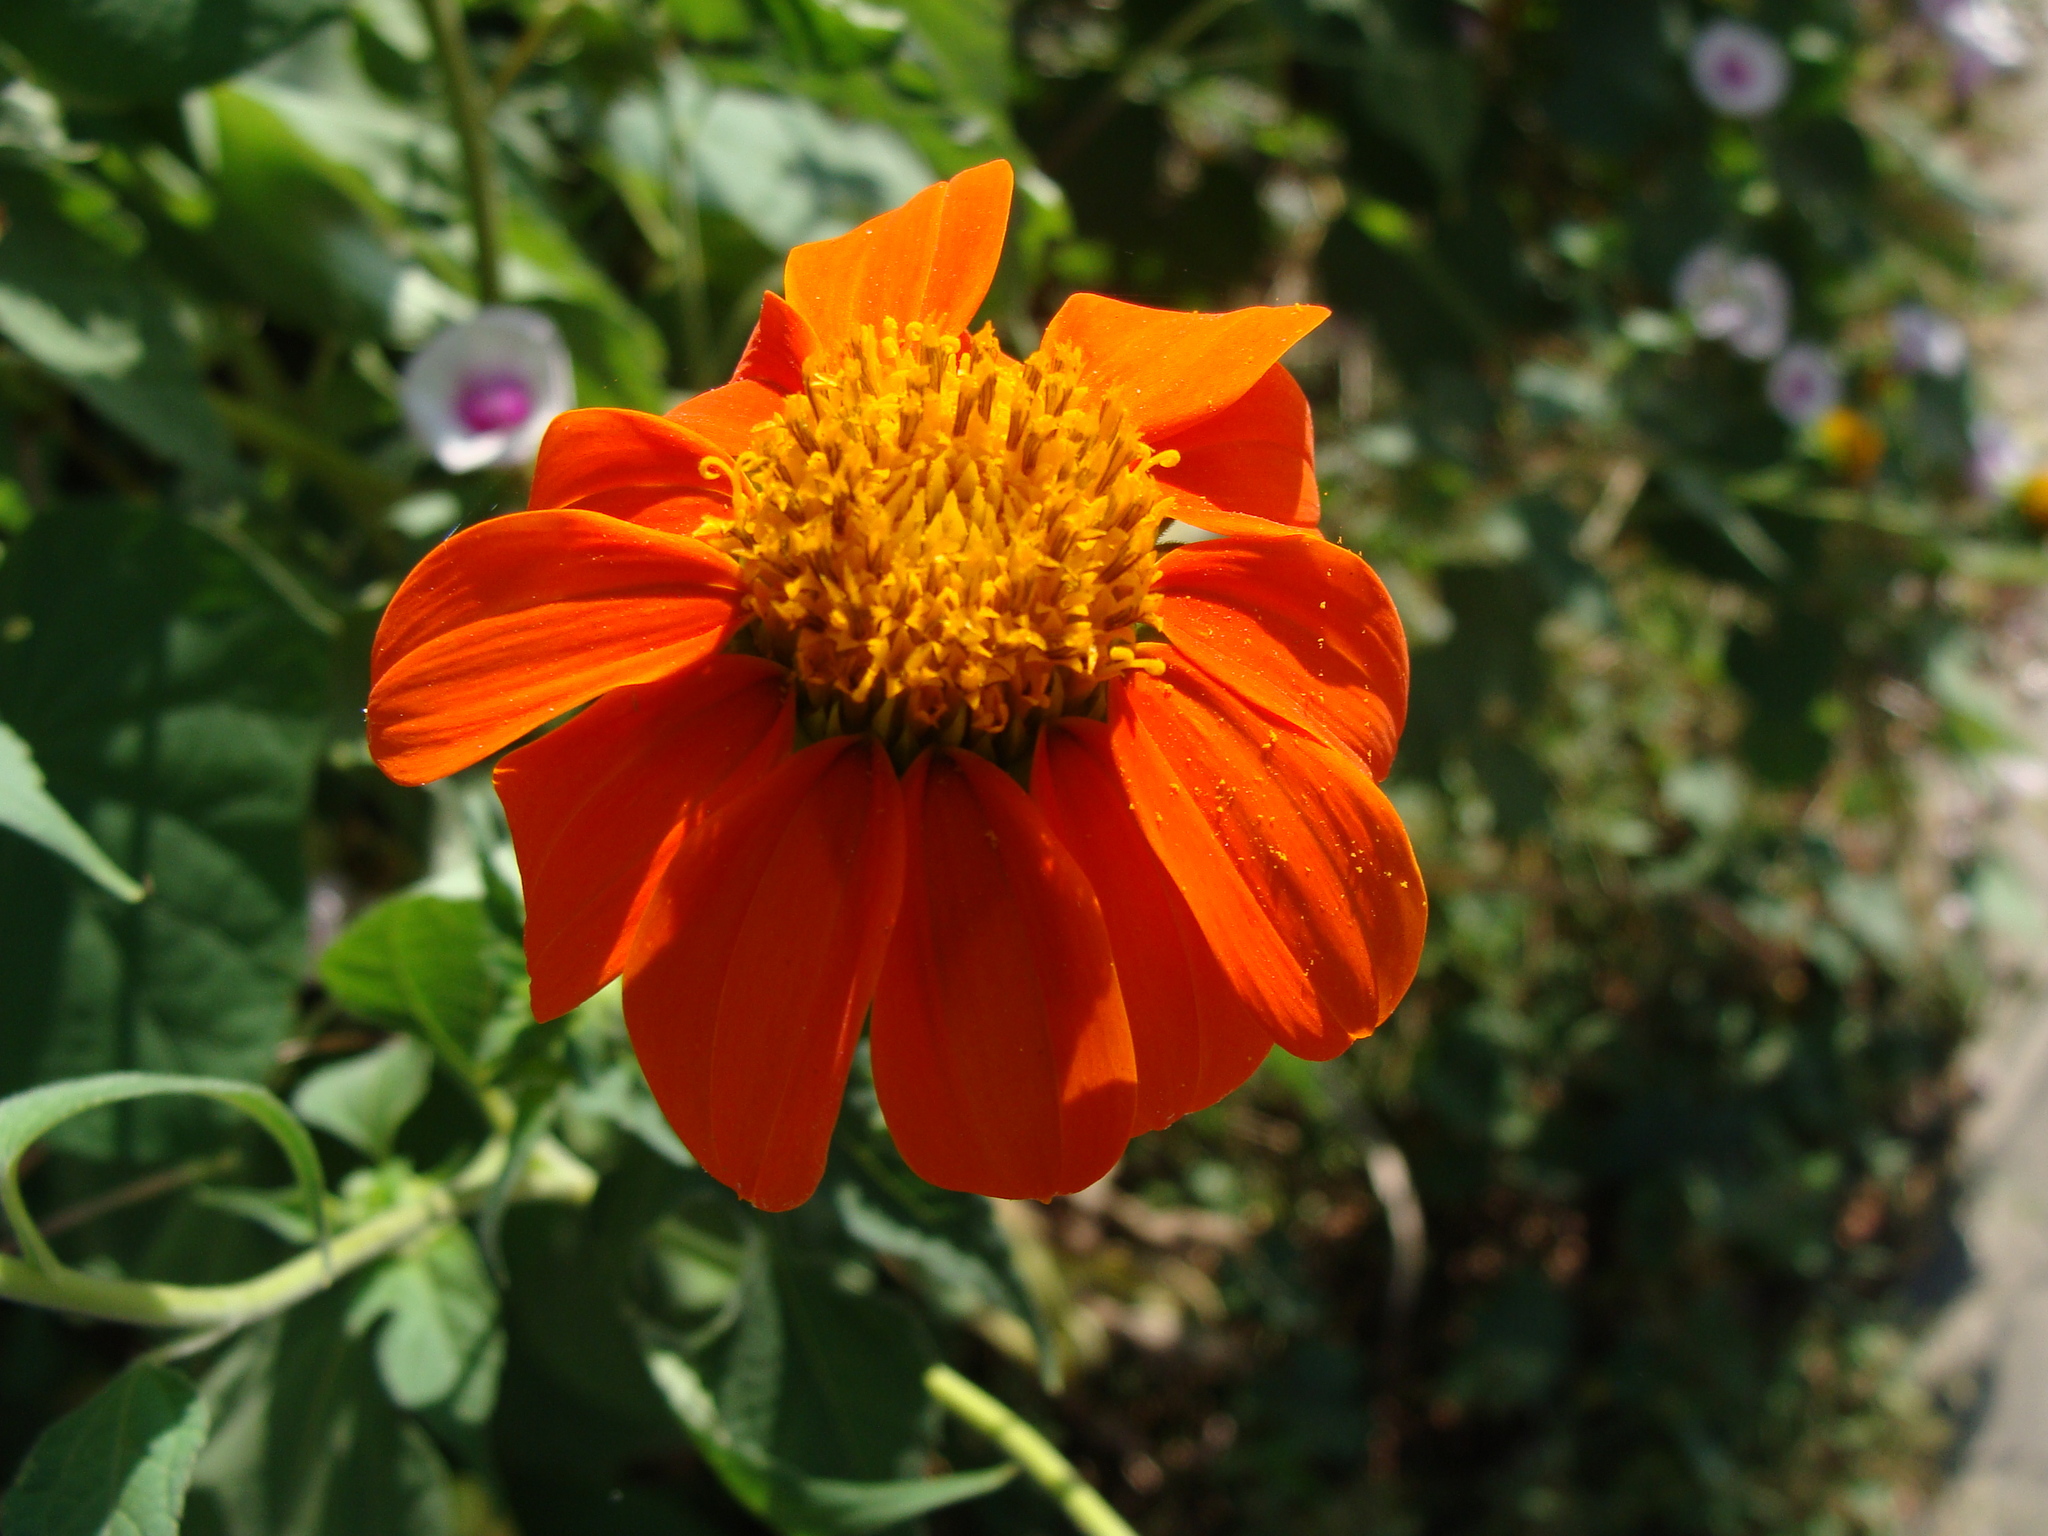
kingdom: Plantae
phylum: Tracheophyta
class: Magnoliopsida
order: Asterales
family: Asteraceae
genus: Tithonia
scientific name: Tithonia rotundifolia
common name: Sunflower
